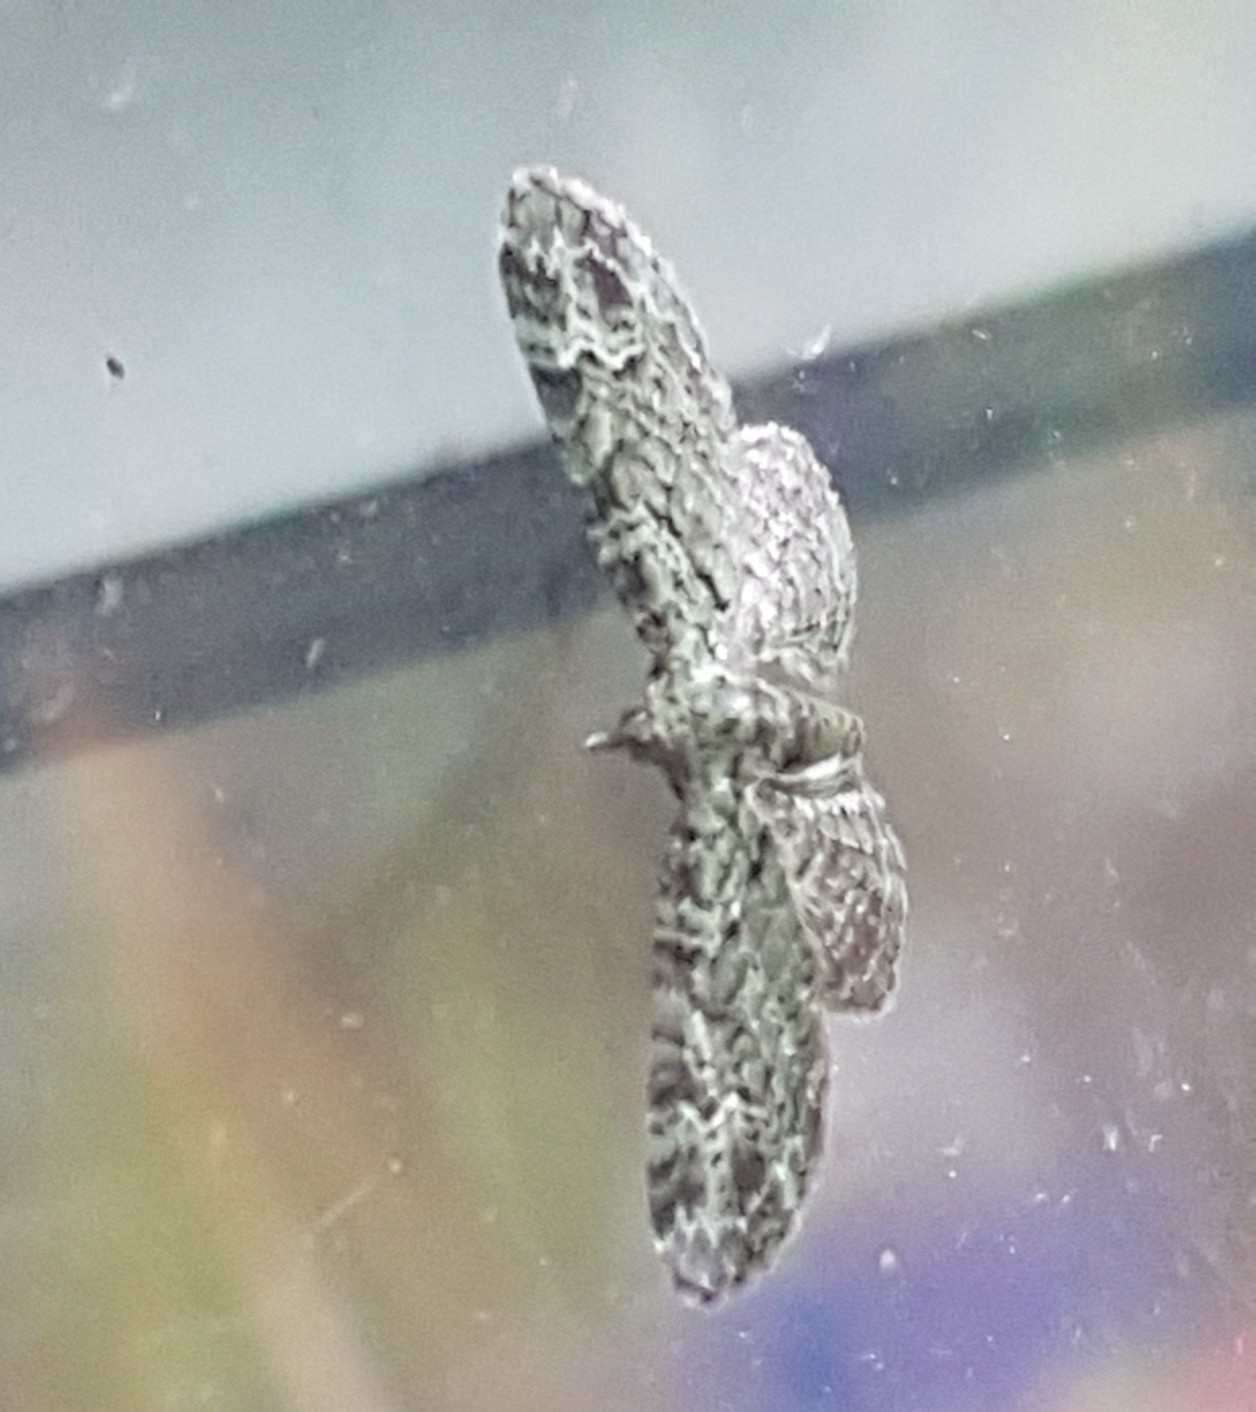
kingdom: Animalia
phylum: Arthropoda
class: Insecta
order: Lepidoptera
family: Geometridae
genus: Pasiphila
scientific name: Pasiphila rectangulata
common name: Green pug
